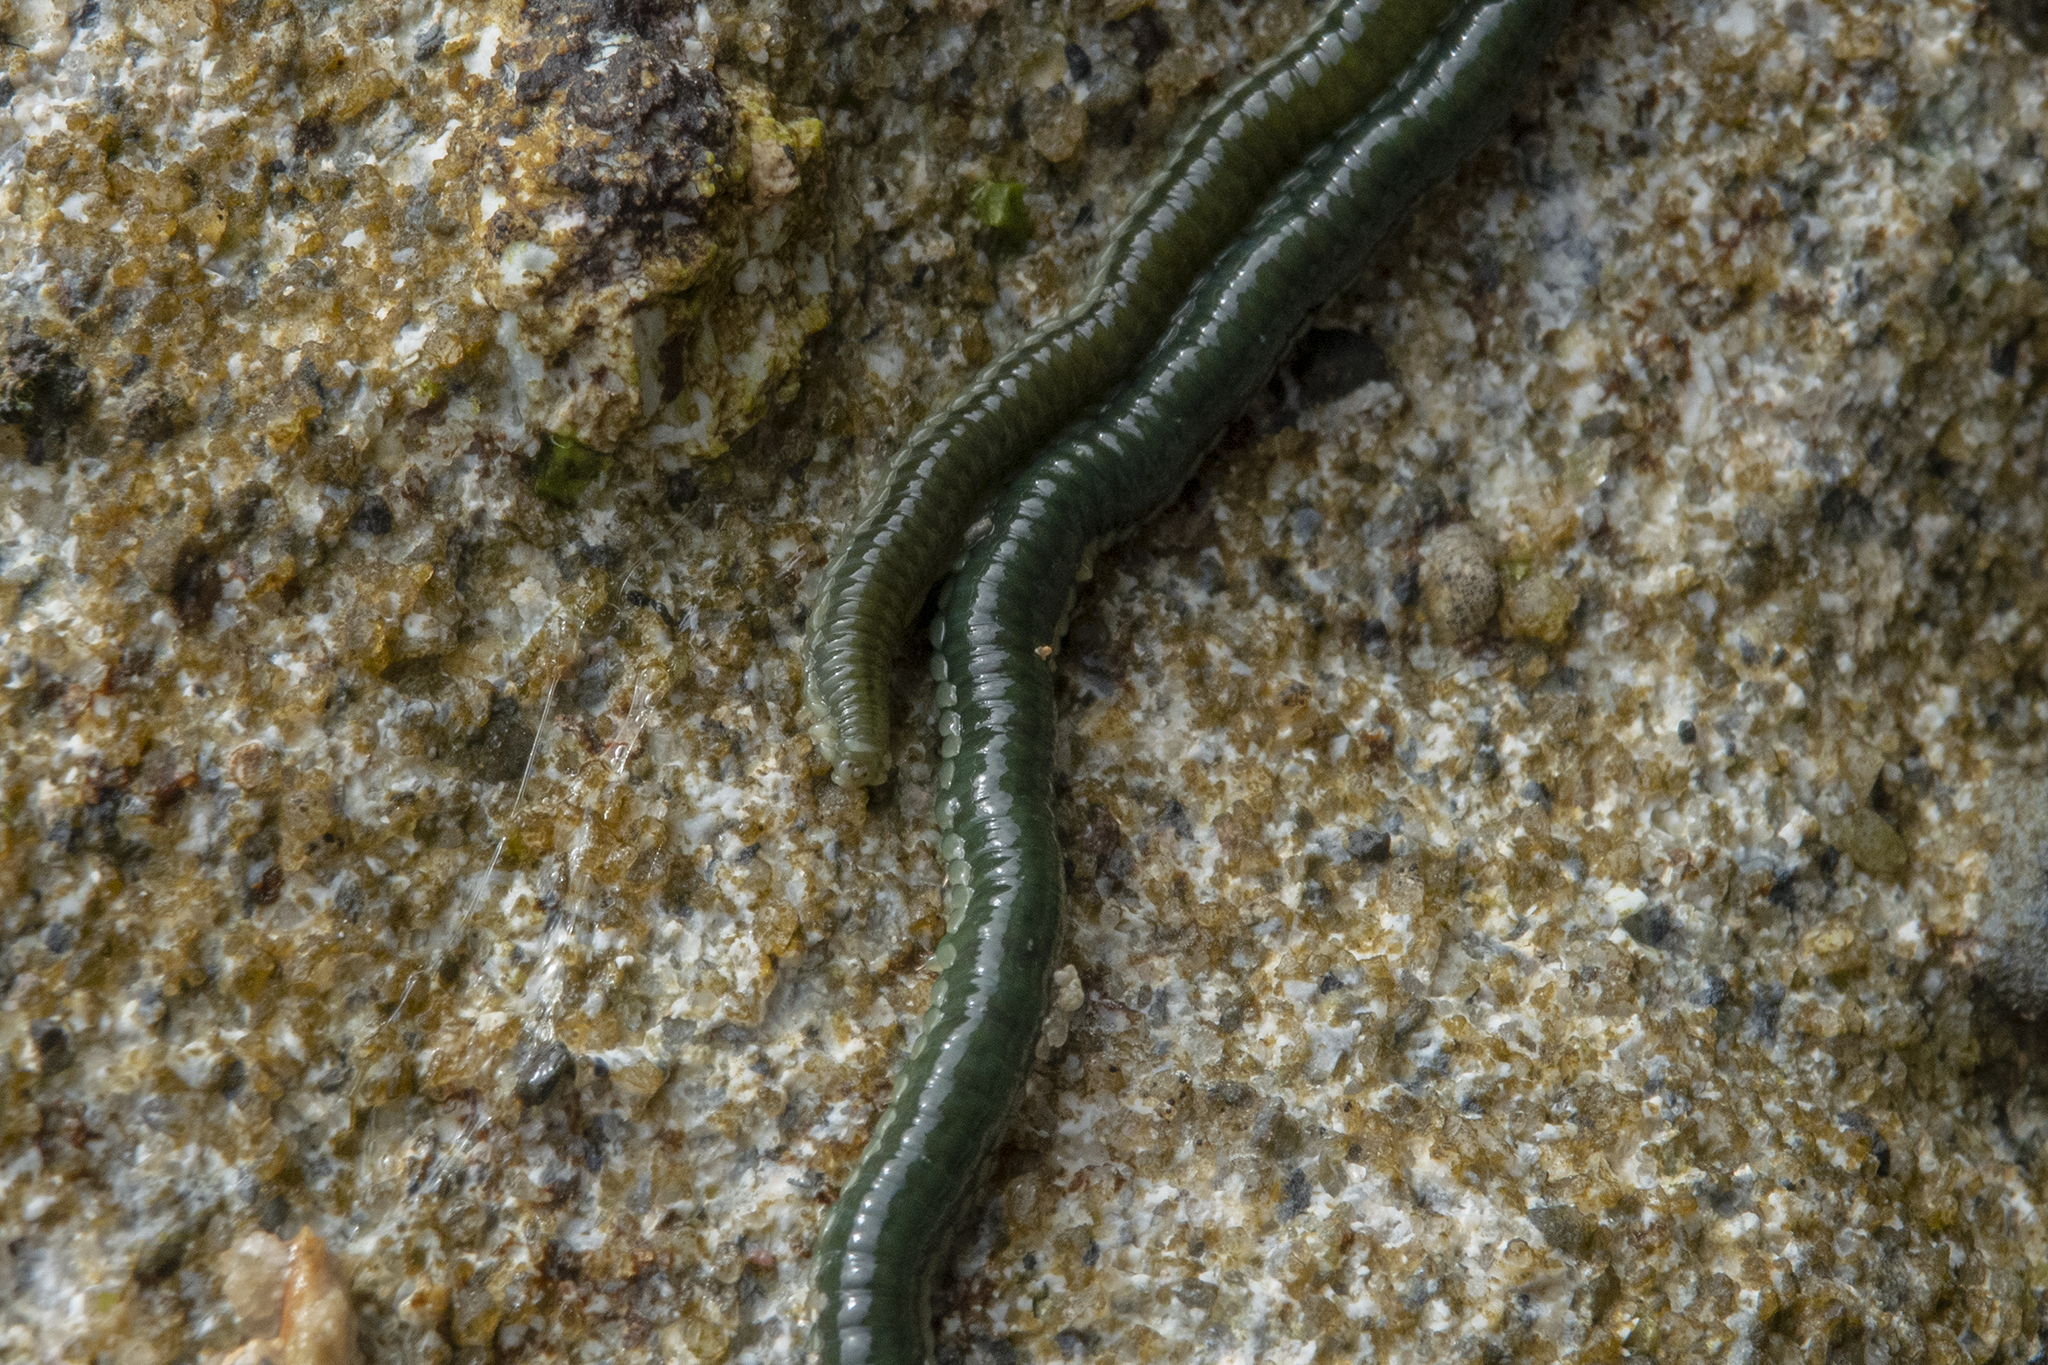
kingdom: Animalia
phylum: Annelida
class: Polychaeta
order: Phyllodocida
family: Phyllodocidae
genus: Eulalia
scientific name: Eulalia microphylla
